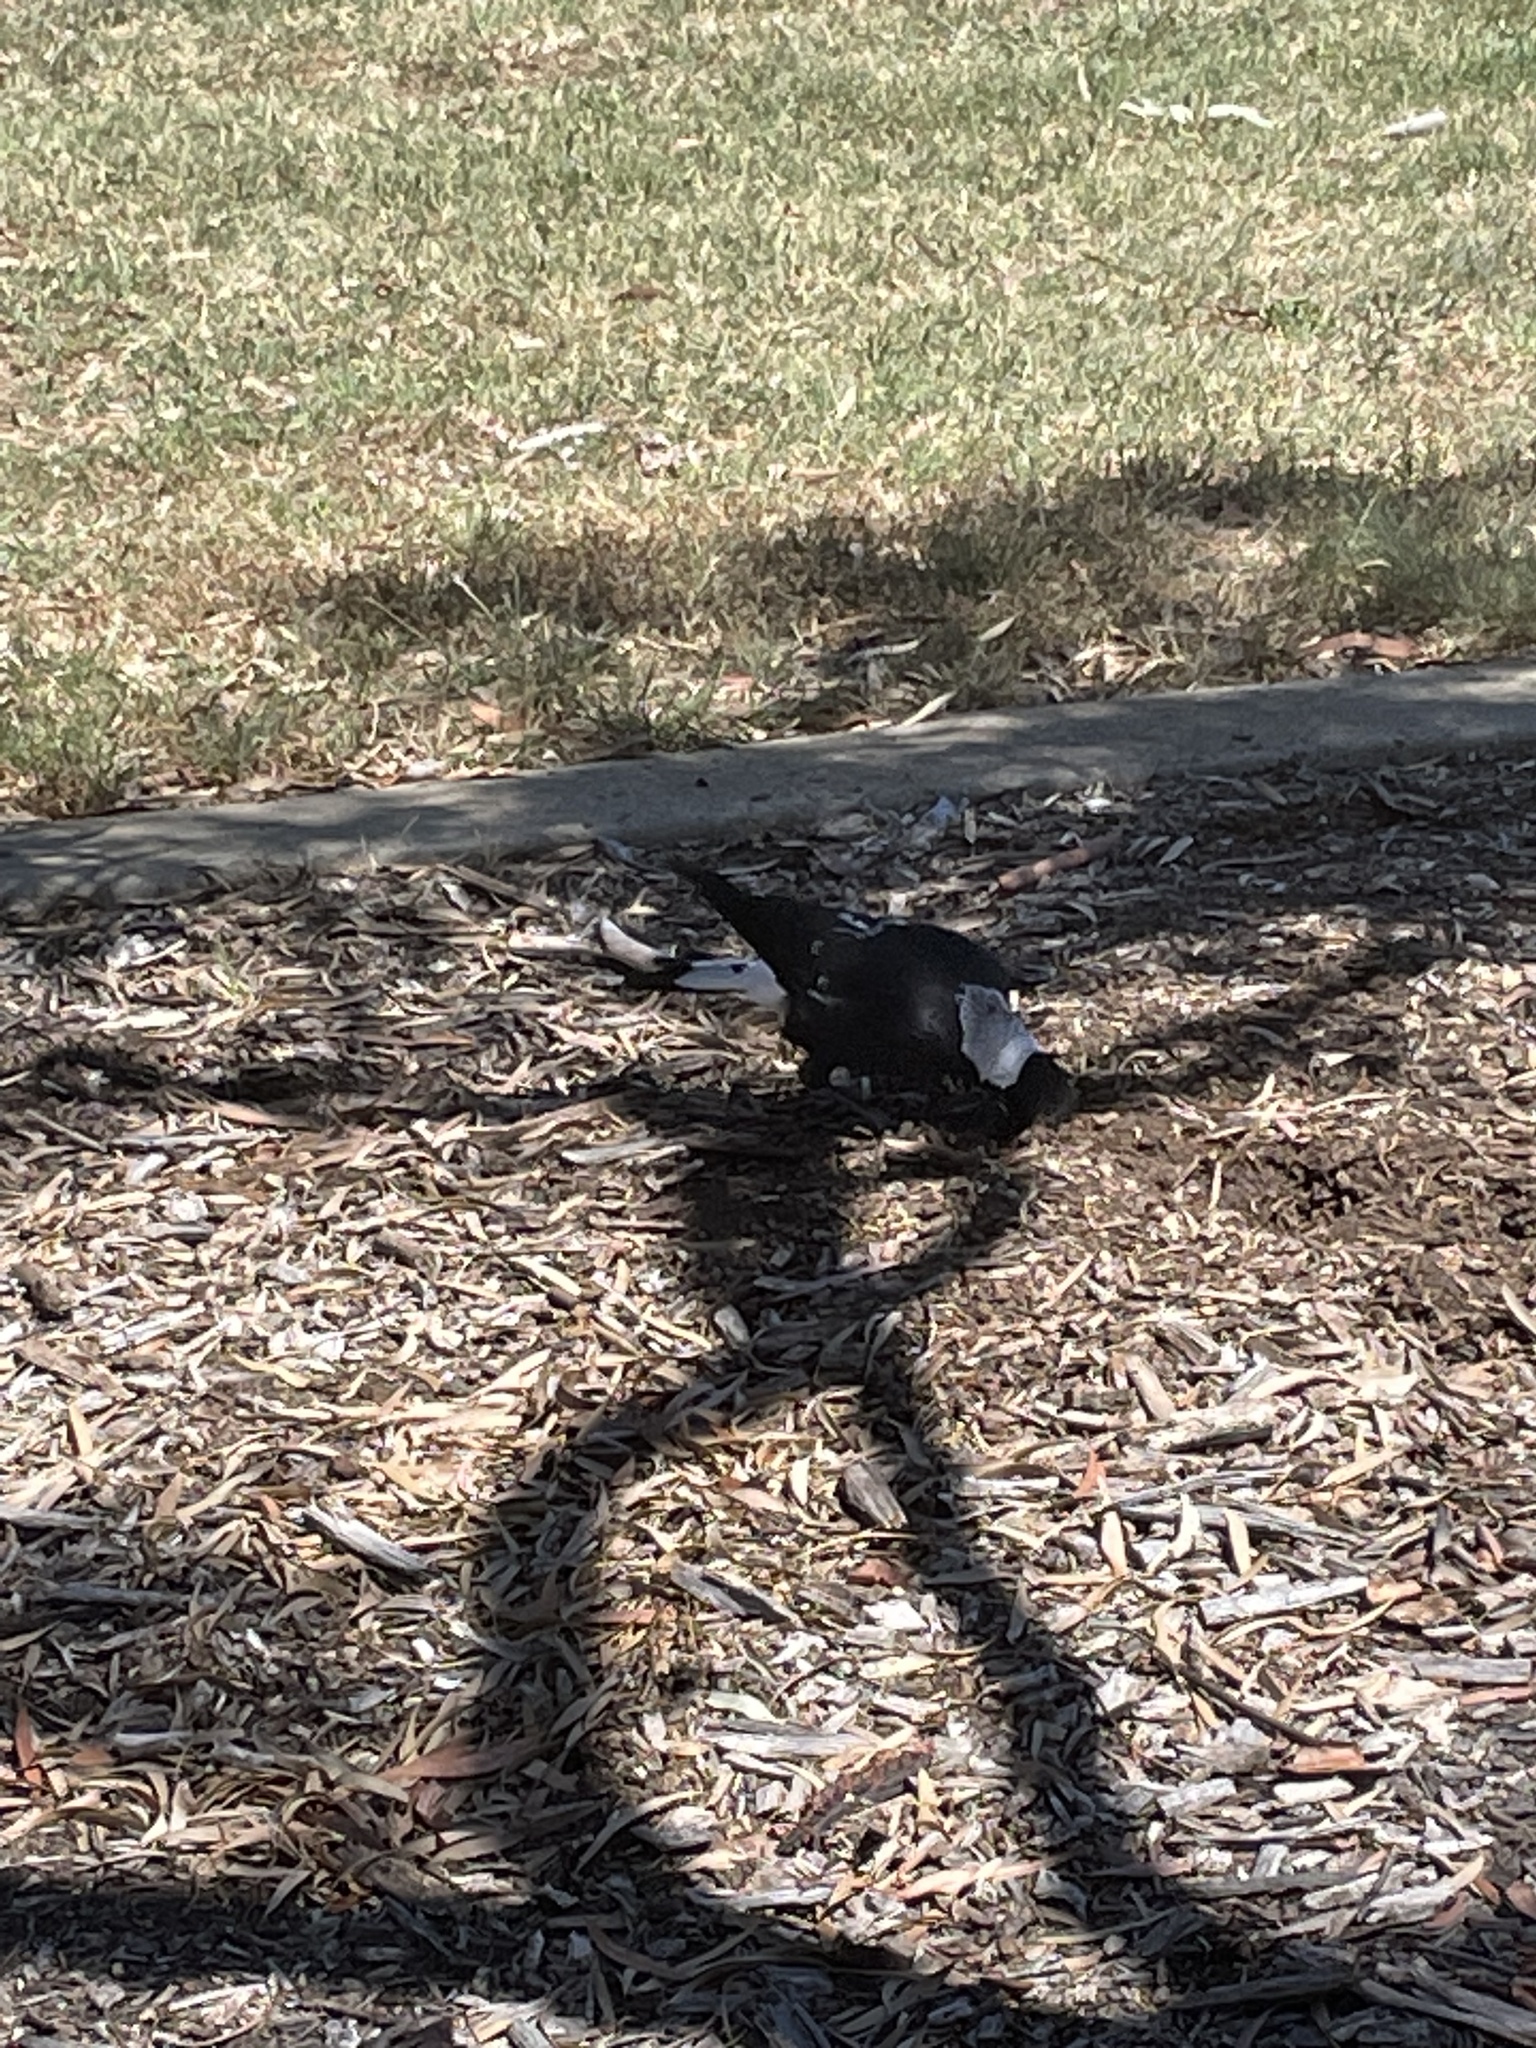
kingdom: Animalia
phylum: Chordata
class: Aves
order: Passeriformes
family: Cracticidae
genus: Gymnorhina
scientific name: Gymnorhina tibicen
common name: Australian magpie
